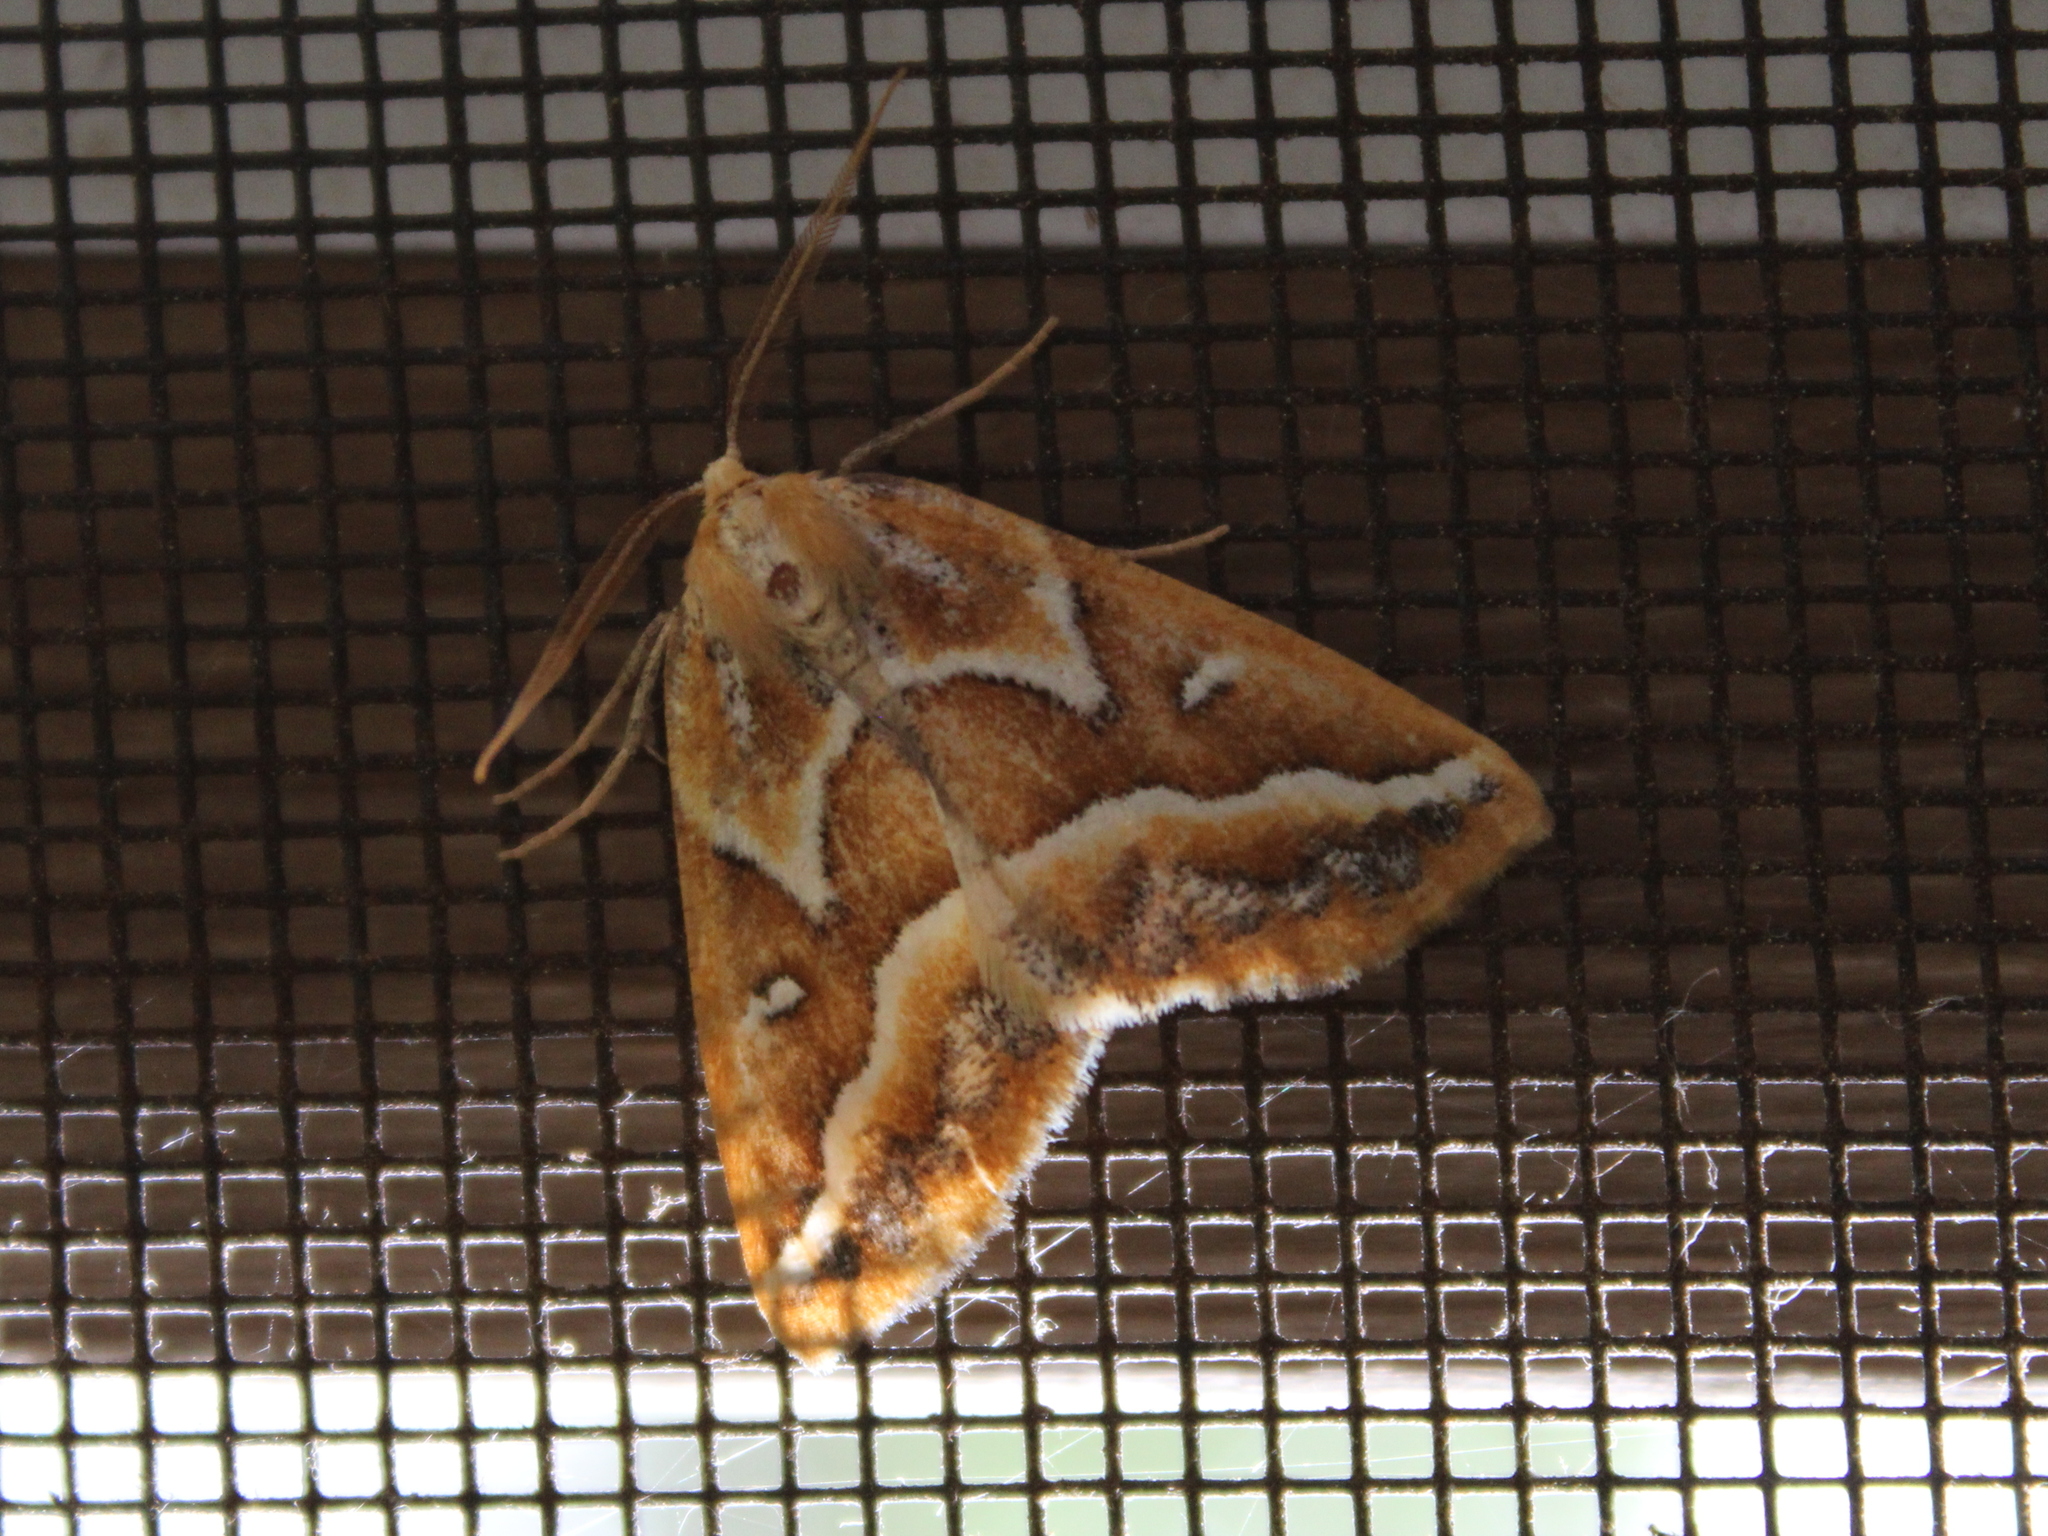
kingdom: Animalia
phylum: Arthropoda
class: Insecta
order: Lepidoptera
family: Geometridae
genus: Caripeta
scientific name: Caripeta angustiorata
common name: Brown pine looper
